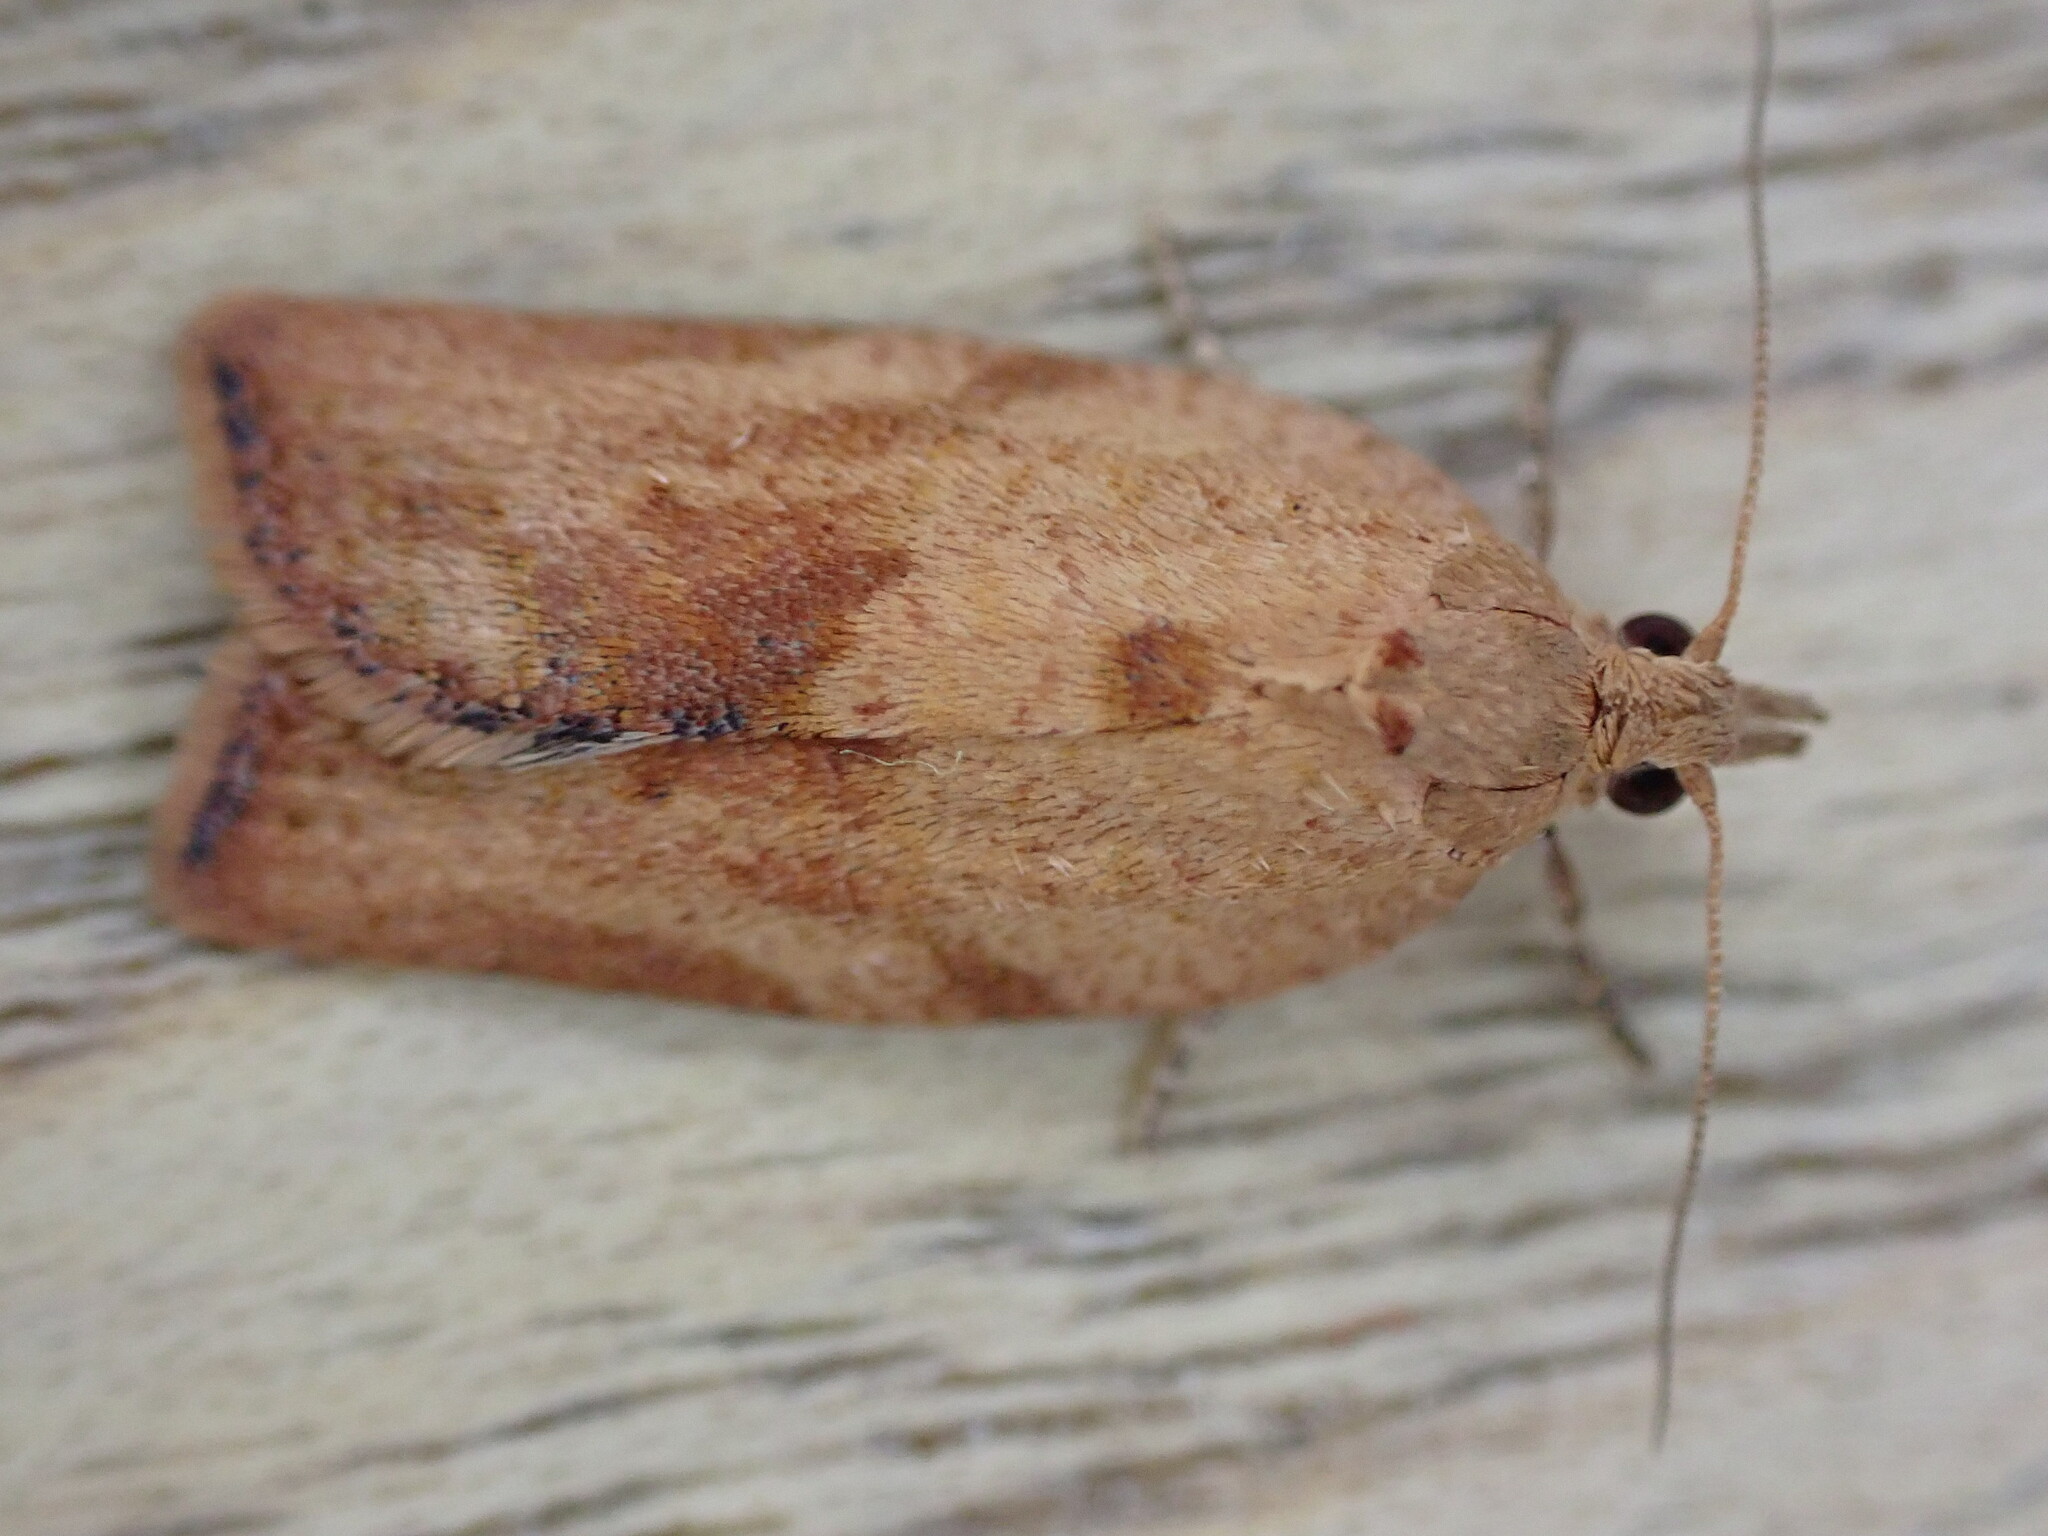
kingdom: Animalia
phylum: Arthropoda
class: Insecta
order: Lepidoptera
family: Tortricidae
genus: Epiphyas
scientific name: Epiphyas postvittana
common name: Light brown apple moth
